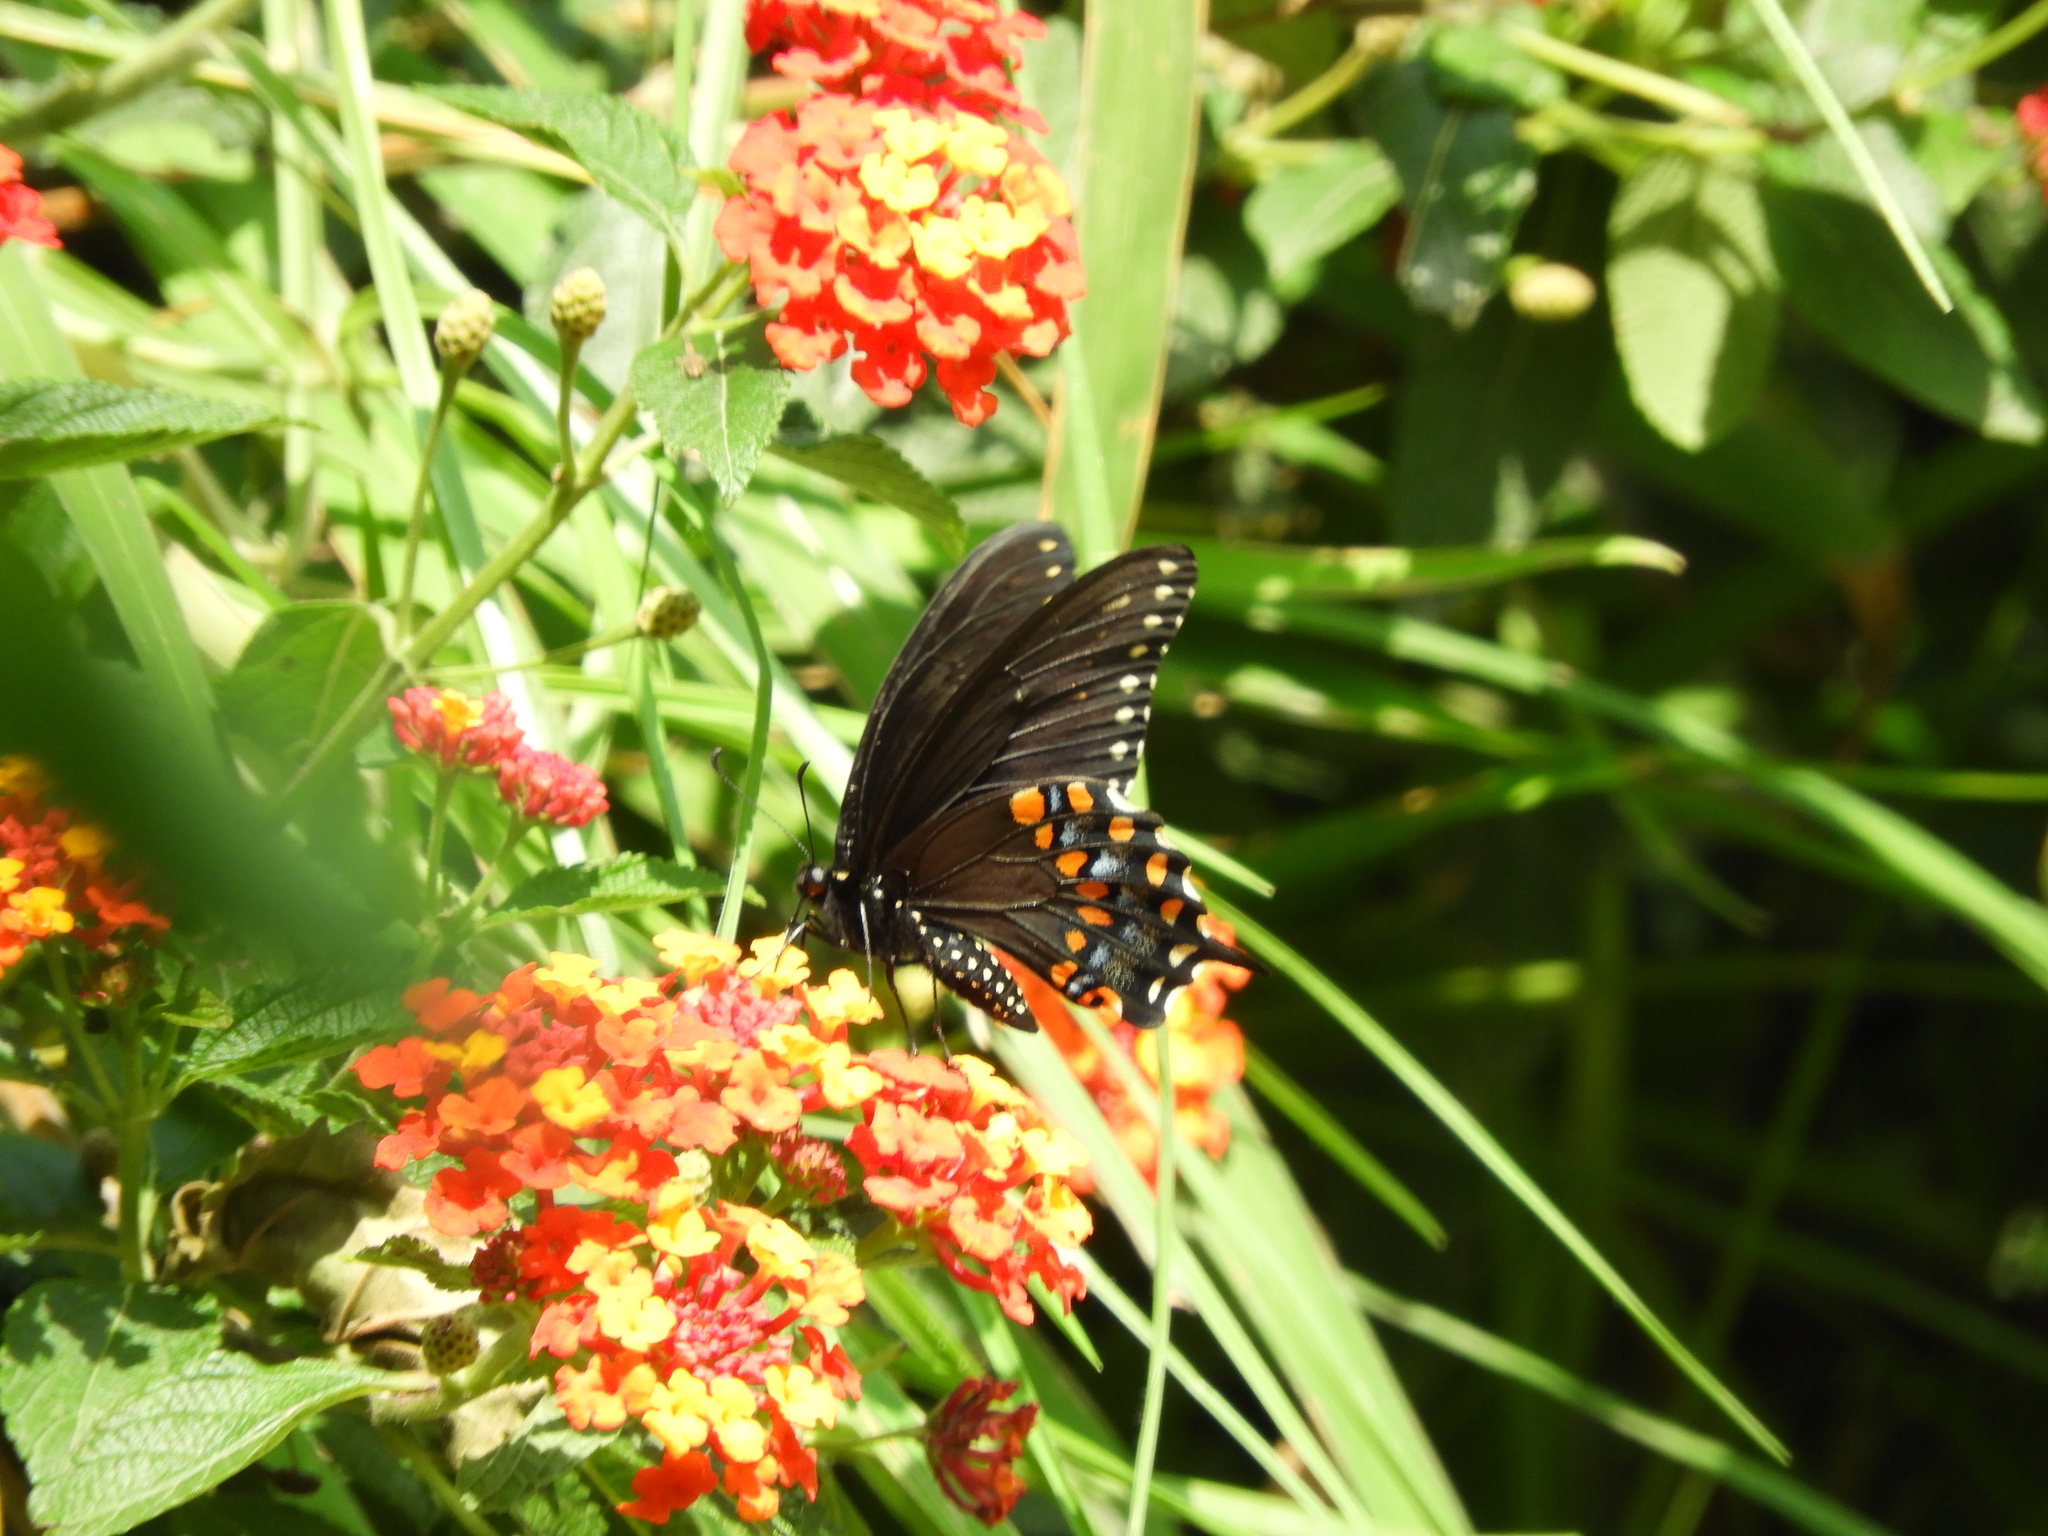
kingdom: Animalia
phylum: Arthropoda
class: Insecta
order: Lepidoptera
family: Papilionidae
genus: Papilio
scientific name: Papilio polyxenes
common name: Black swallowtail
